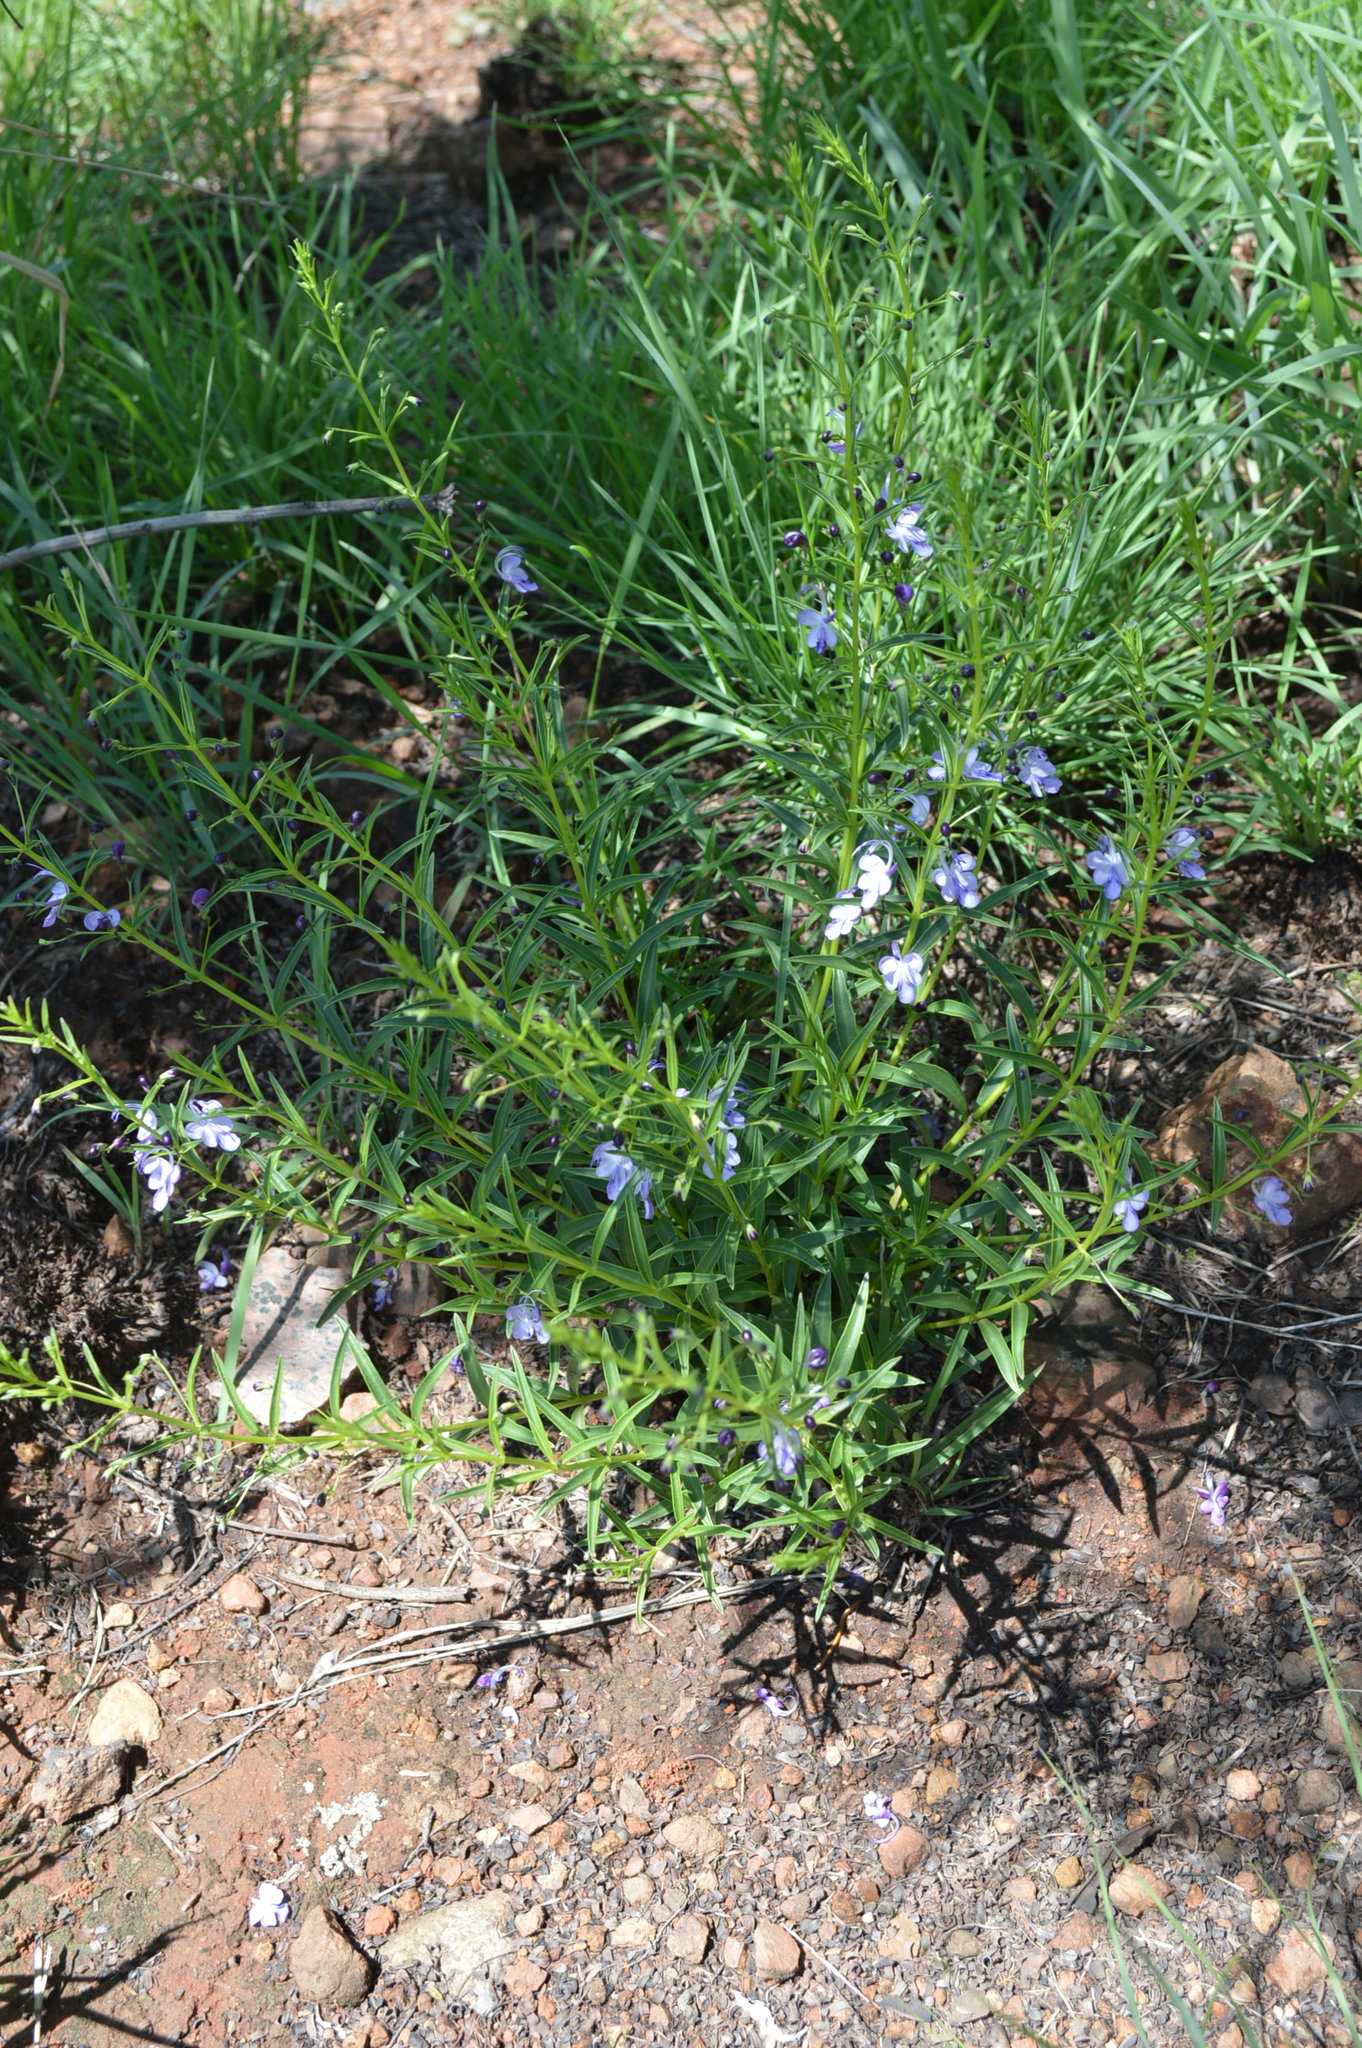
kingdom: Plantae
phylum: Tracheophyta
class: Magnoliopsida
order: Lamiales
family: Lamiaceae
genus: Rotheca
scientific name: Rotheca hirsuta
